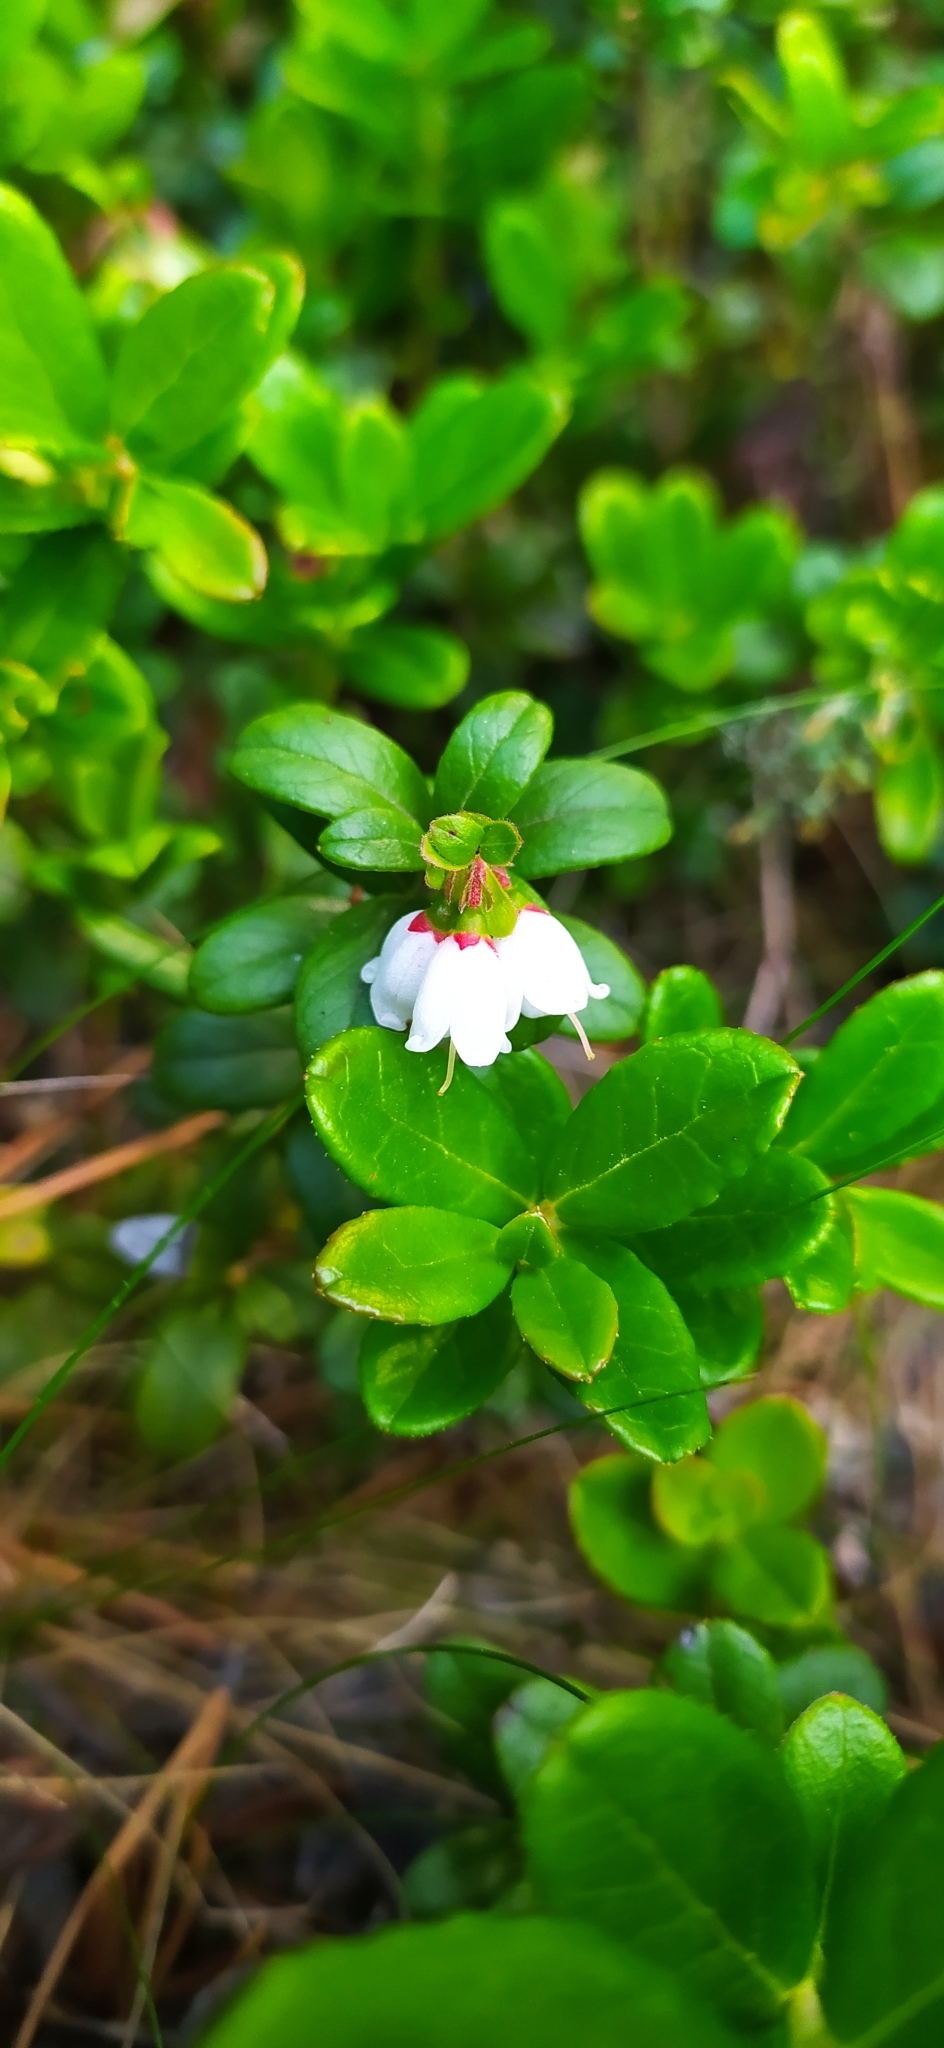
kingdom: Plantae
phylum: Tracheophyta
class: Magnoliopsida
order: Ericales
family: Ericaceae
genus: Vaccinium
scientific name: Vaccinium vitis-idaea
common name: Cowberry
